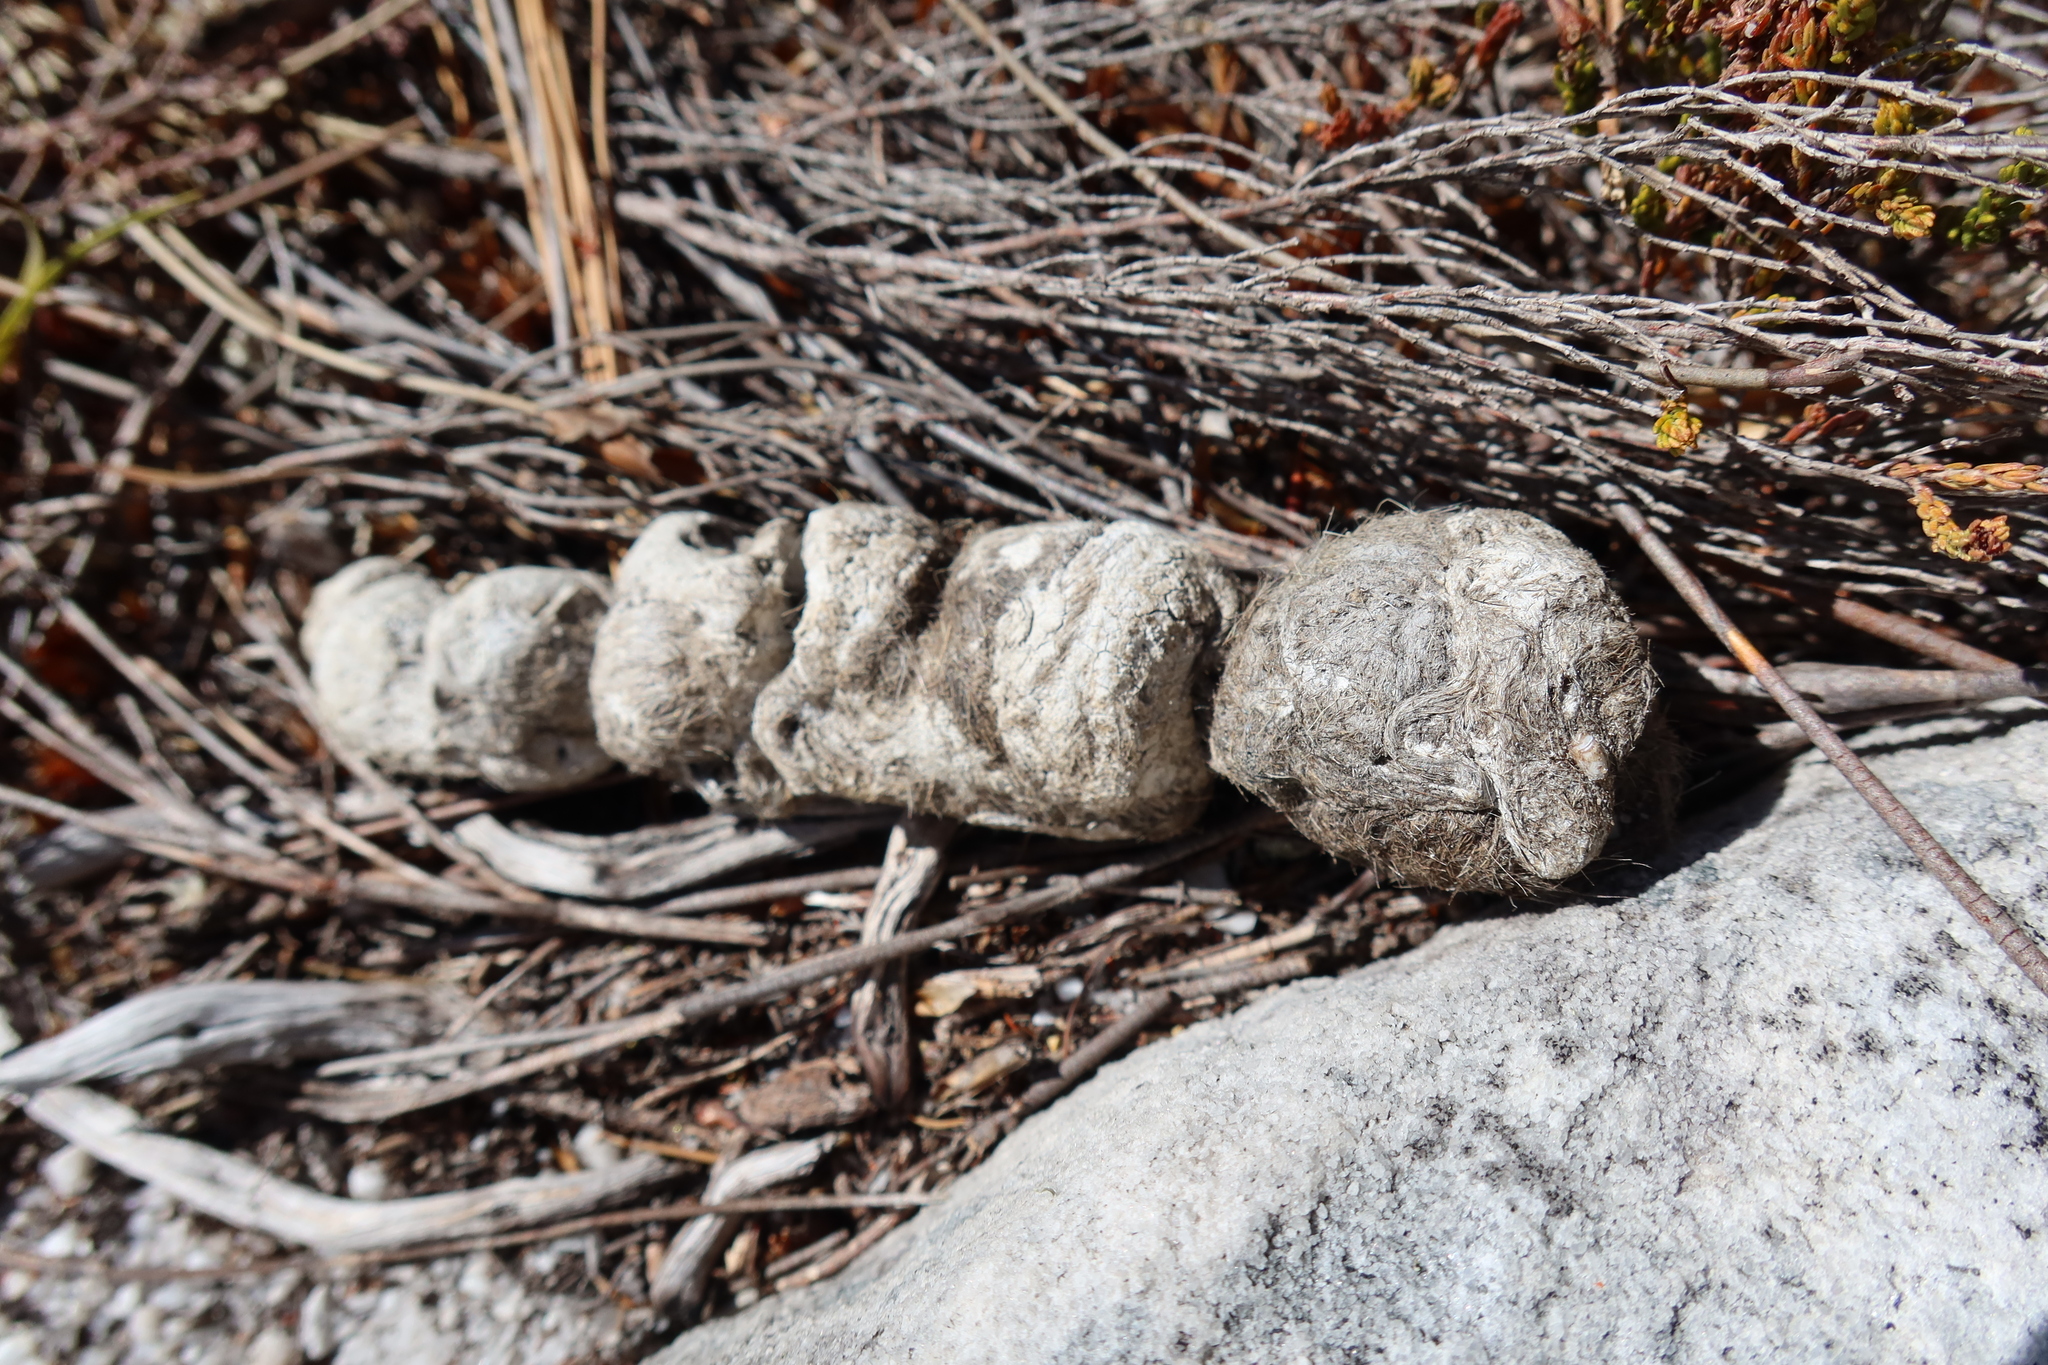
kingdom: Animalia
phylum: Chordata
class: Mammalia
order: Carnivora
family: Felidae
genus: Caracal
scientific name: Caracal caracal
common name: Caracal
